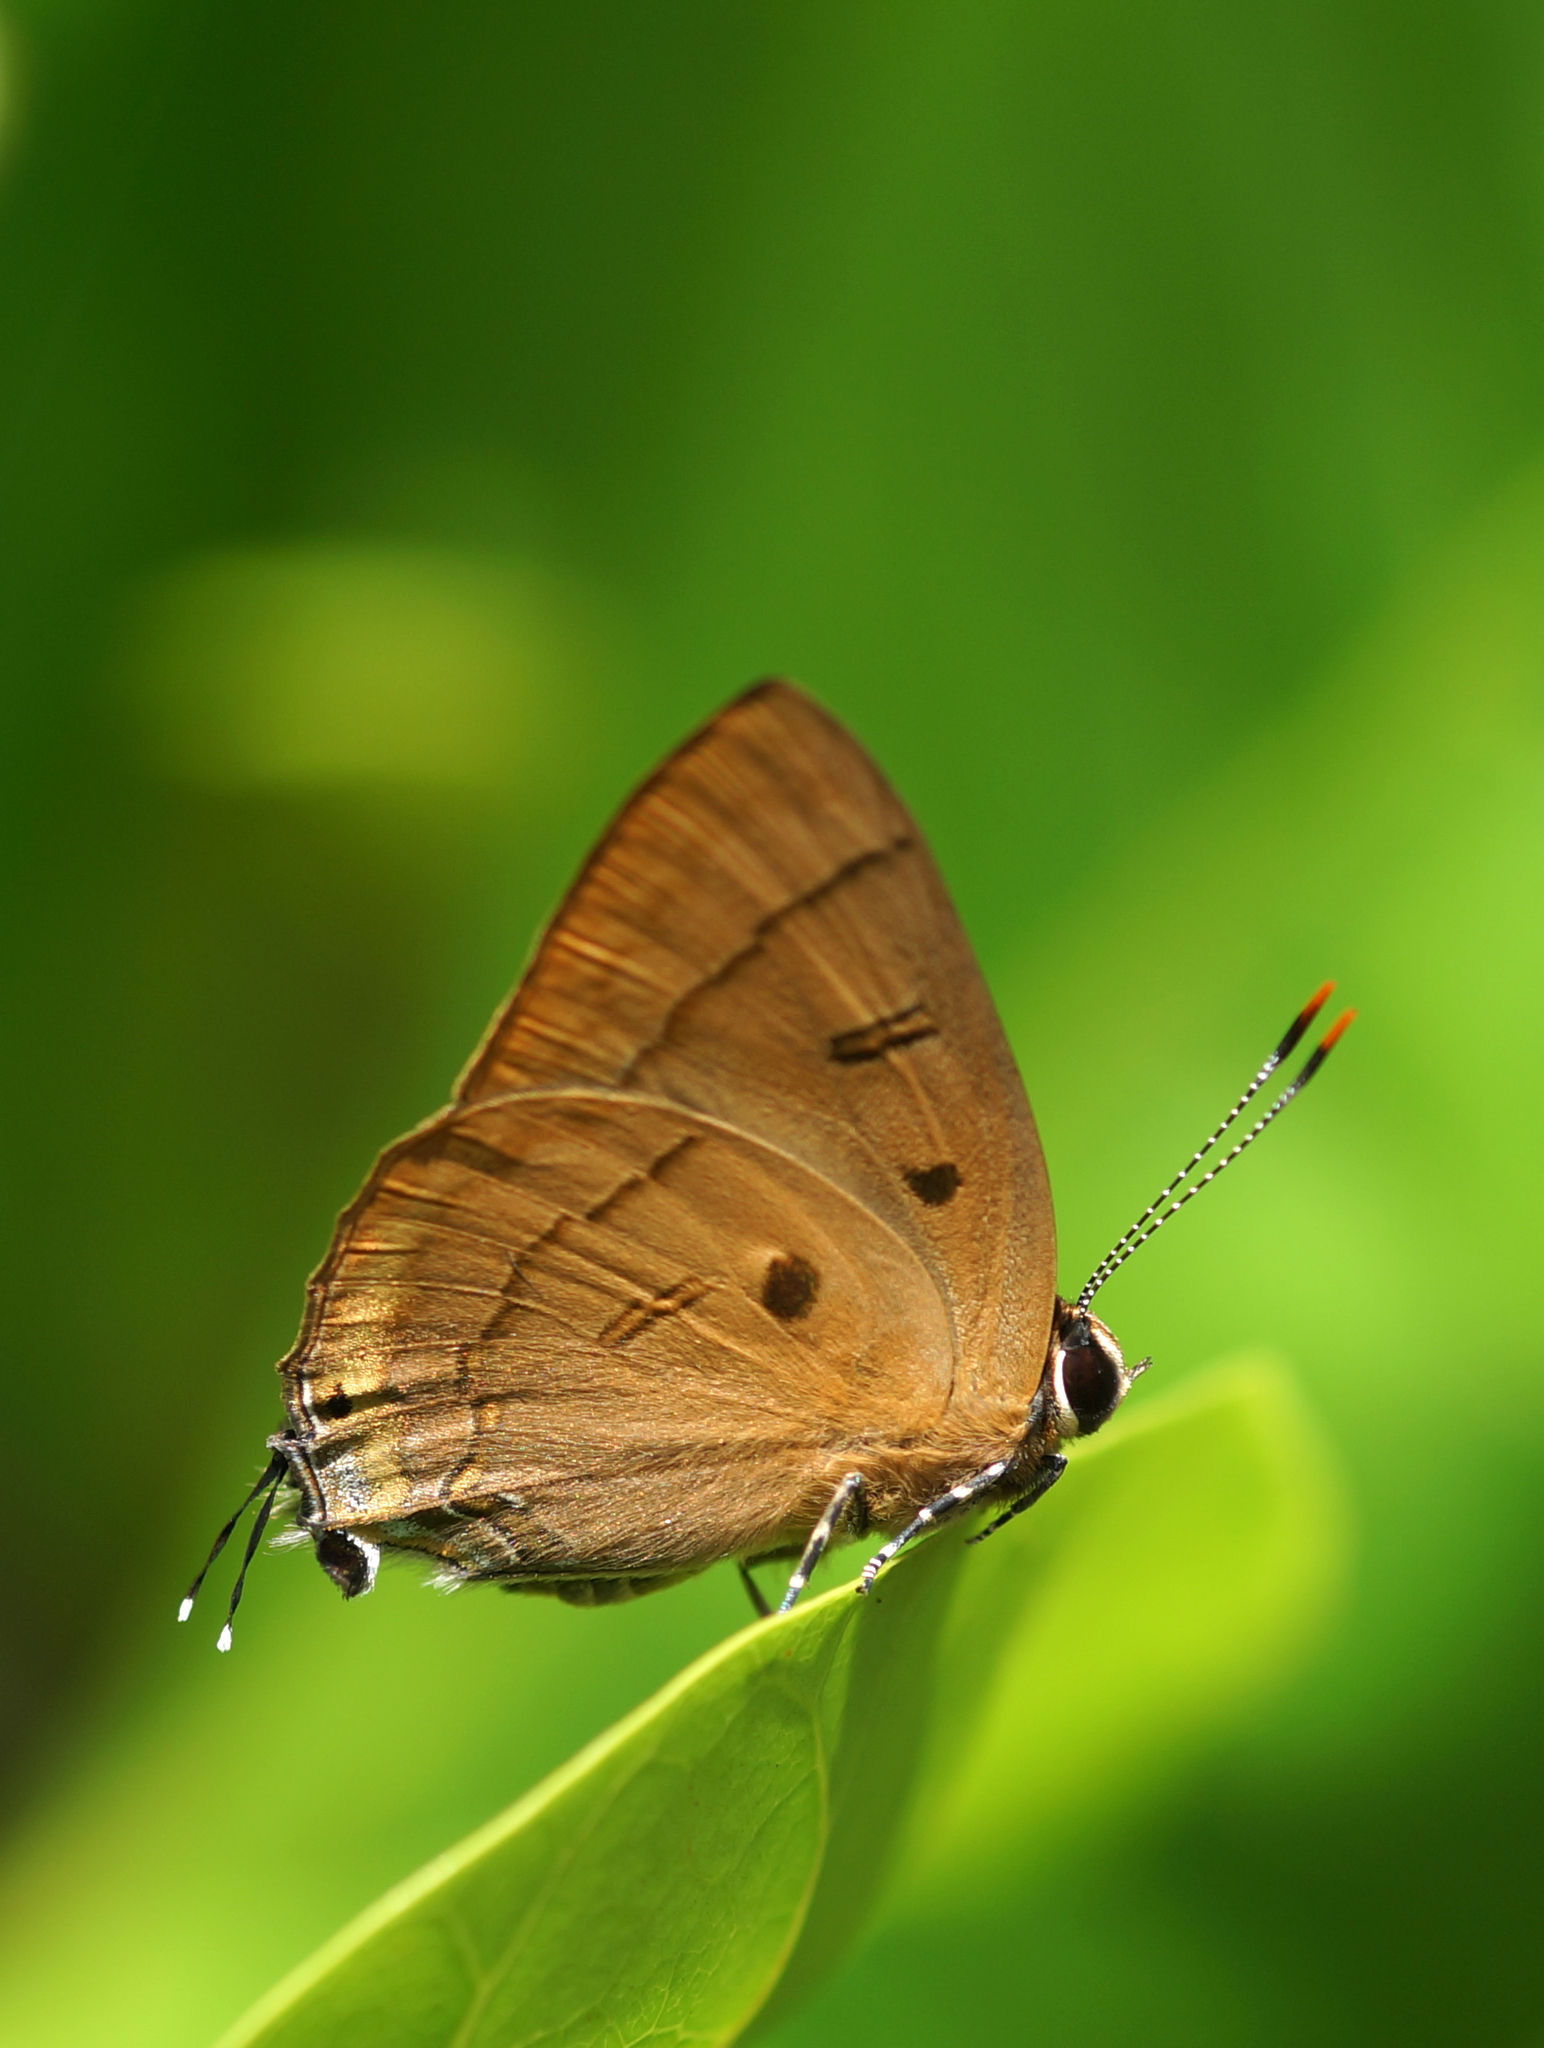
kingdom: Animalia
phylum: Arthropoda
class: Insecta
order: Lepidoptera
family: Lycaenidae
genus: Rapala
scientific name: Rapala pheretima
